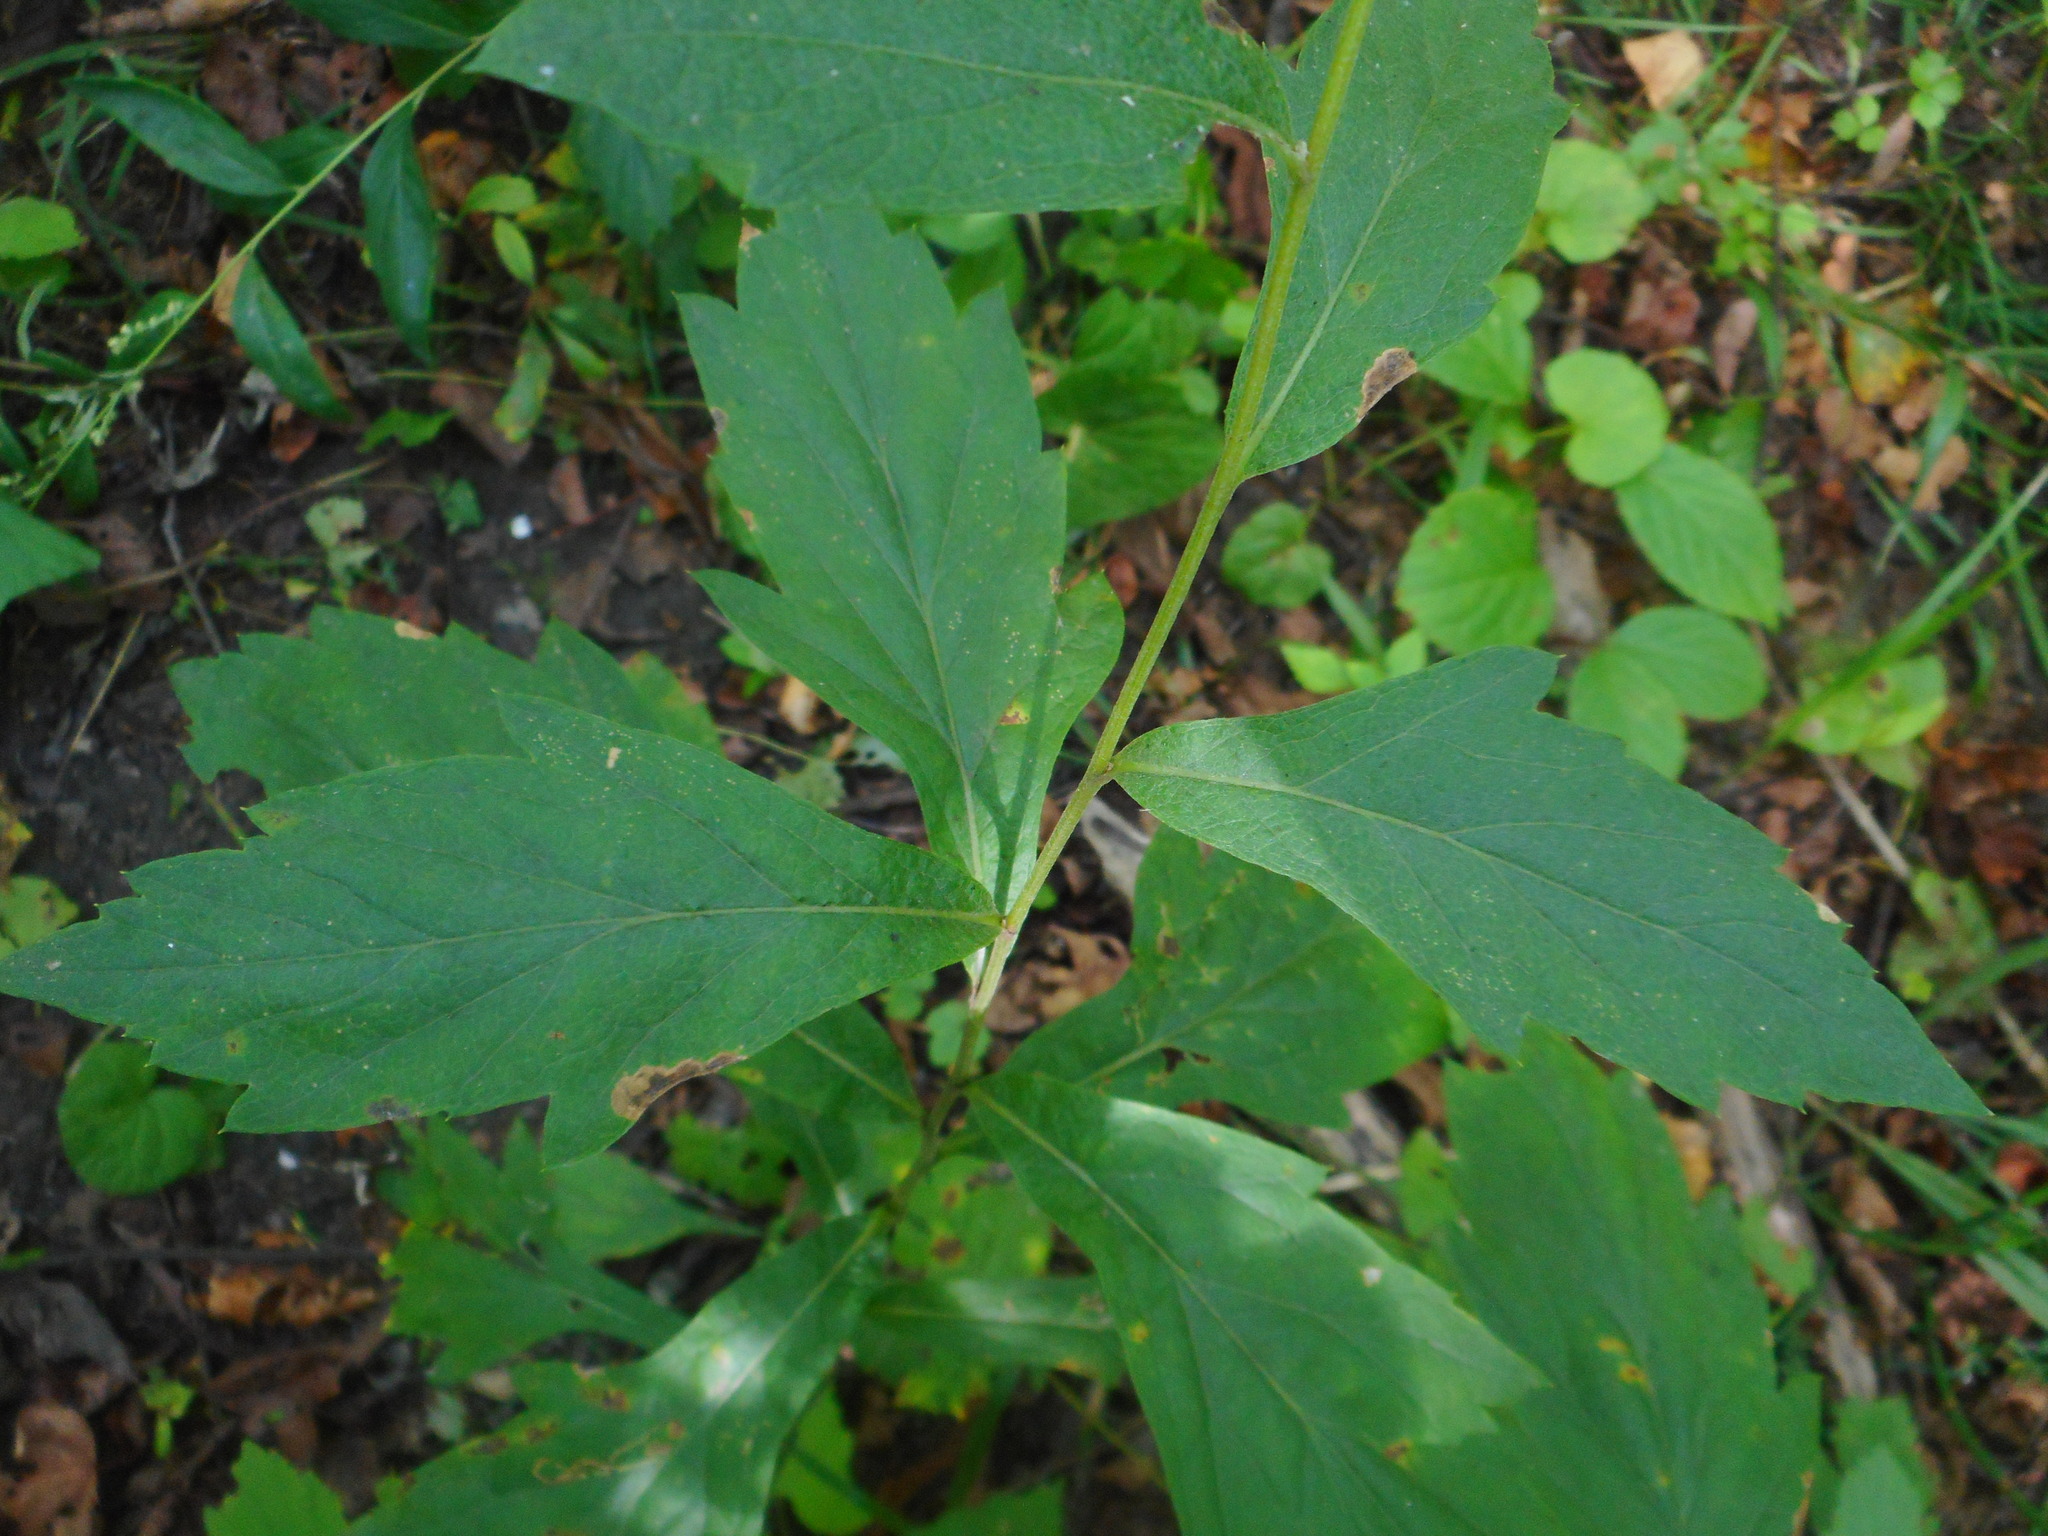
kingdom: Plantae
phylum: Tracheophyta
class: Magnoliopsida
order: Asterales
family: Asteraceae
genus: Artemisia
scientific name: Artemisia stolonifera
